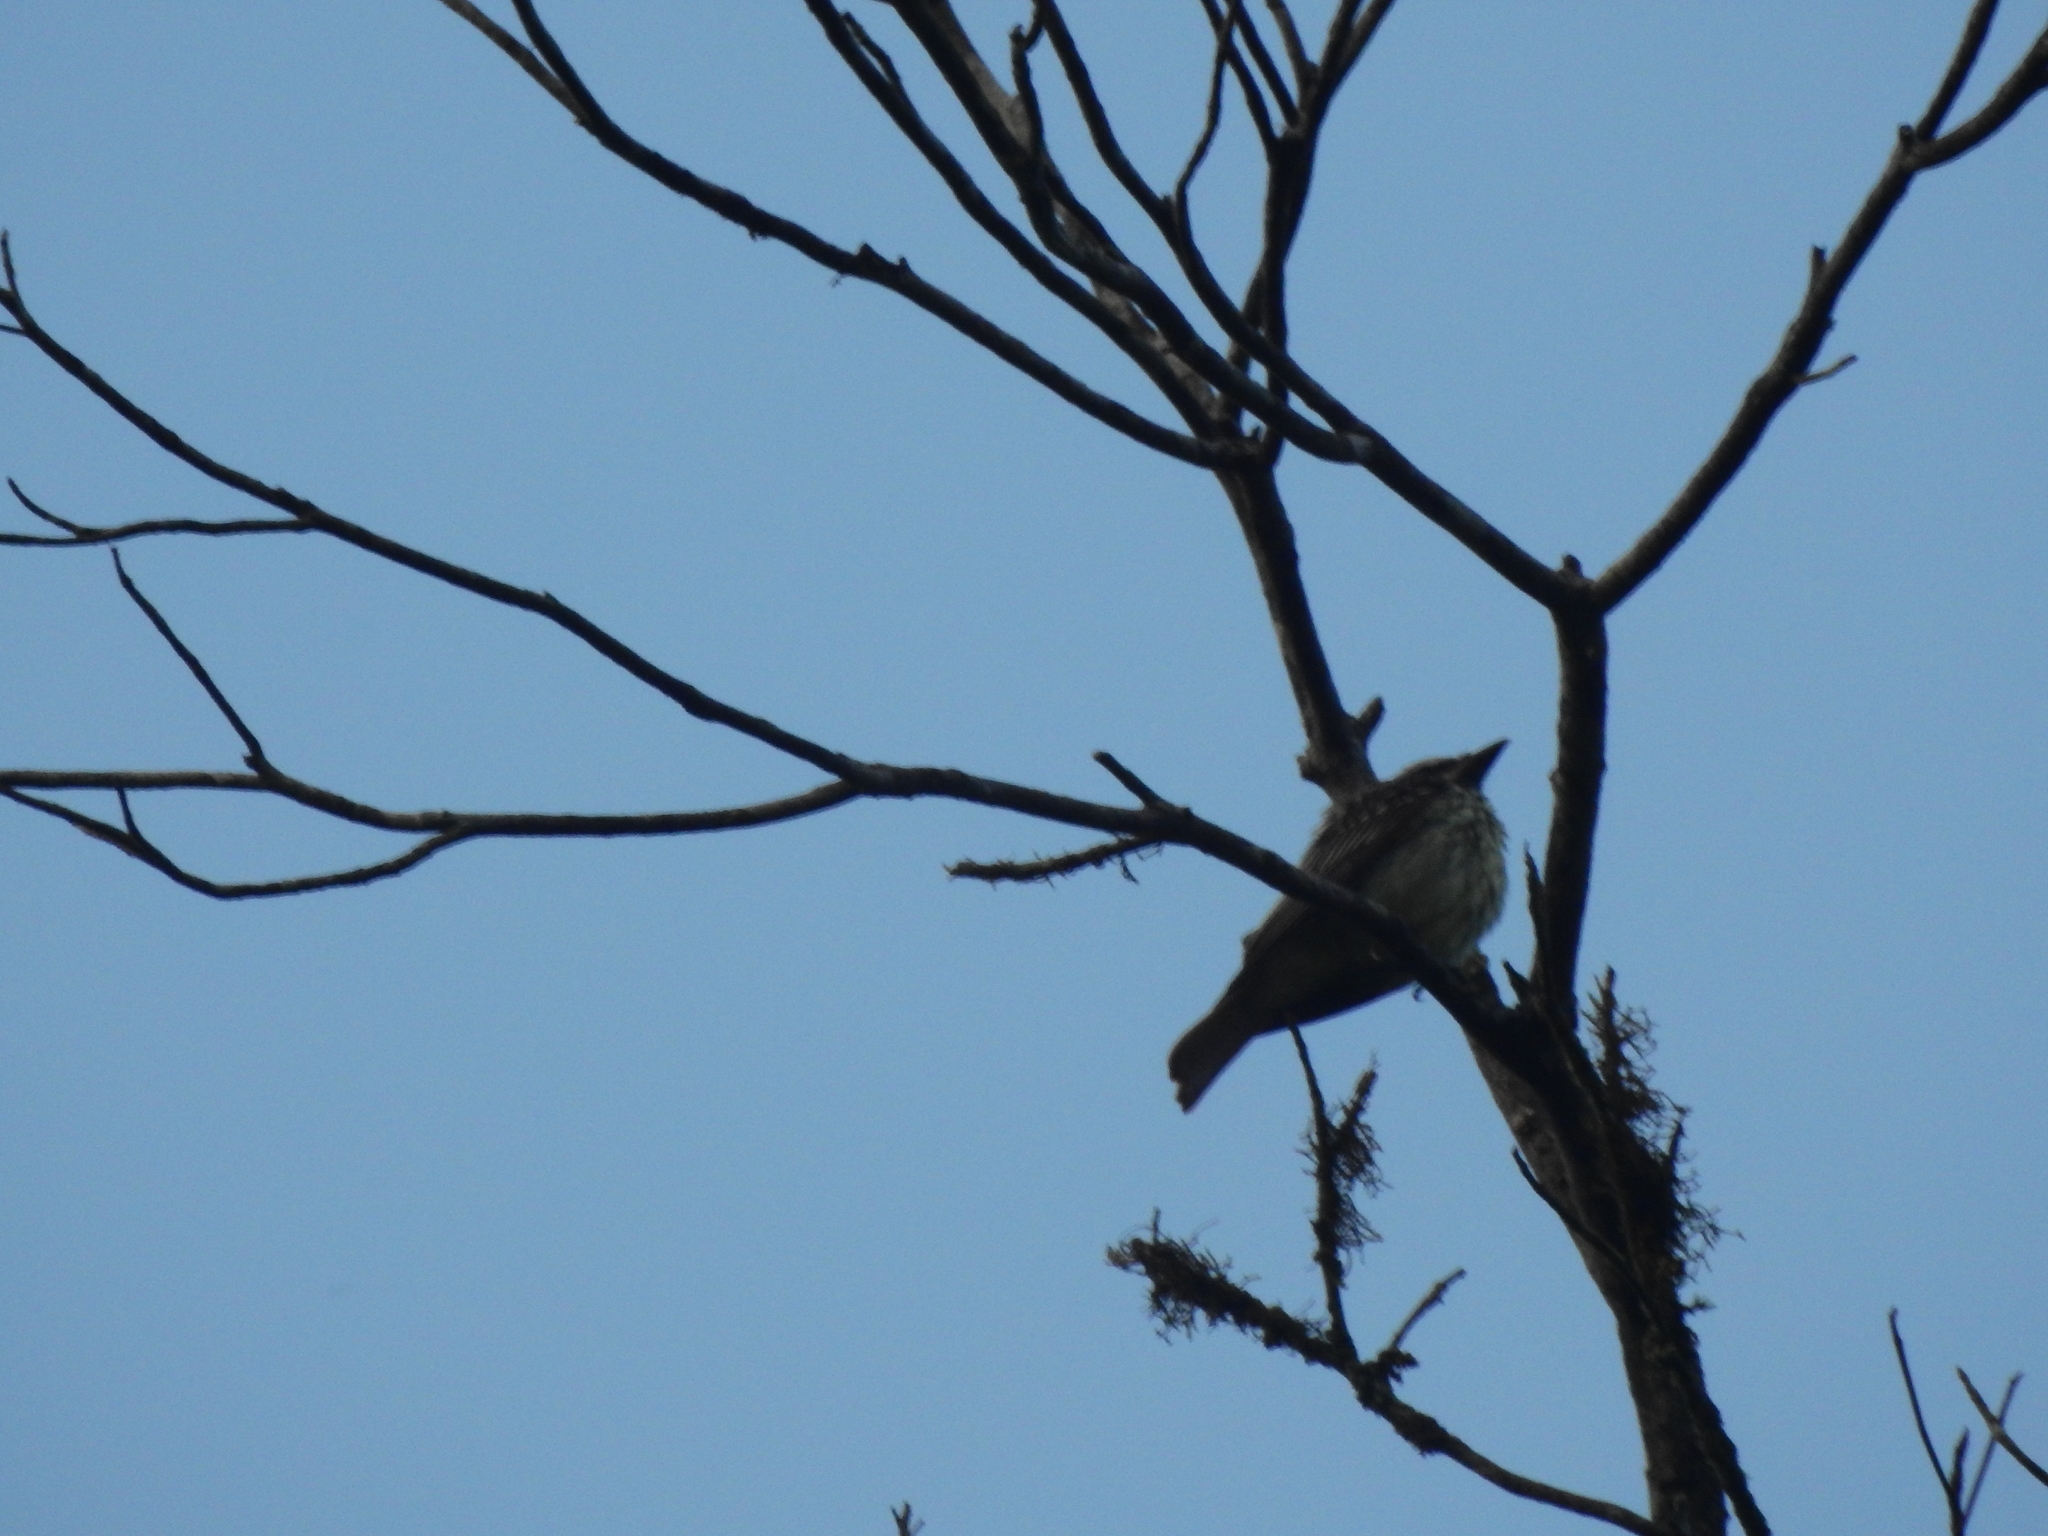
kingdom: Animalia
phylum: Chordata
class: Aves
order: Passeriformes
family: Tyrannidae
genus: Myiodynastes
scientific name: Myiodynastes luteiventris
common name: Sulphur-bellied flycatcher
